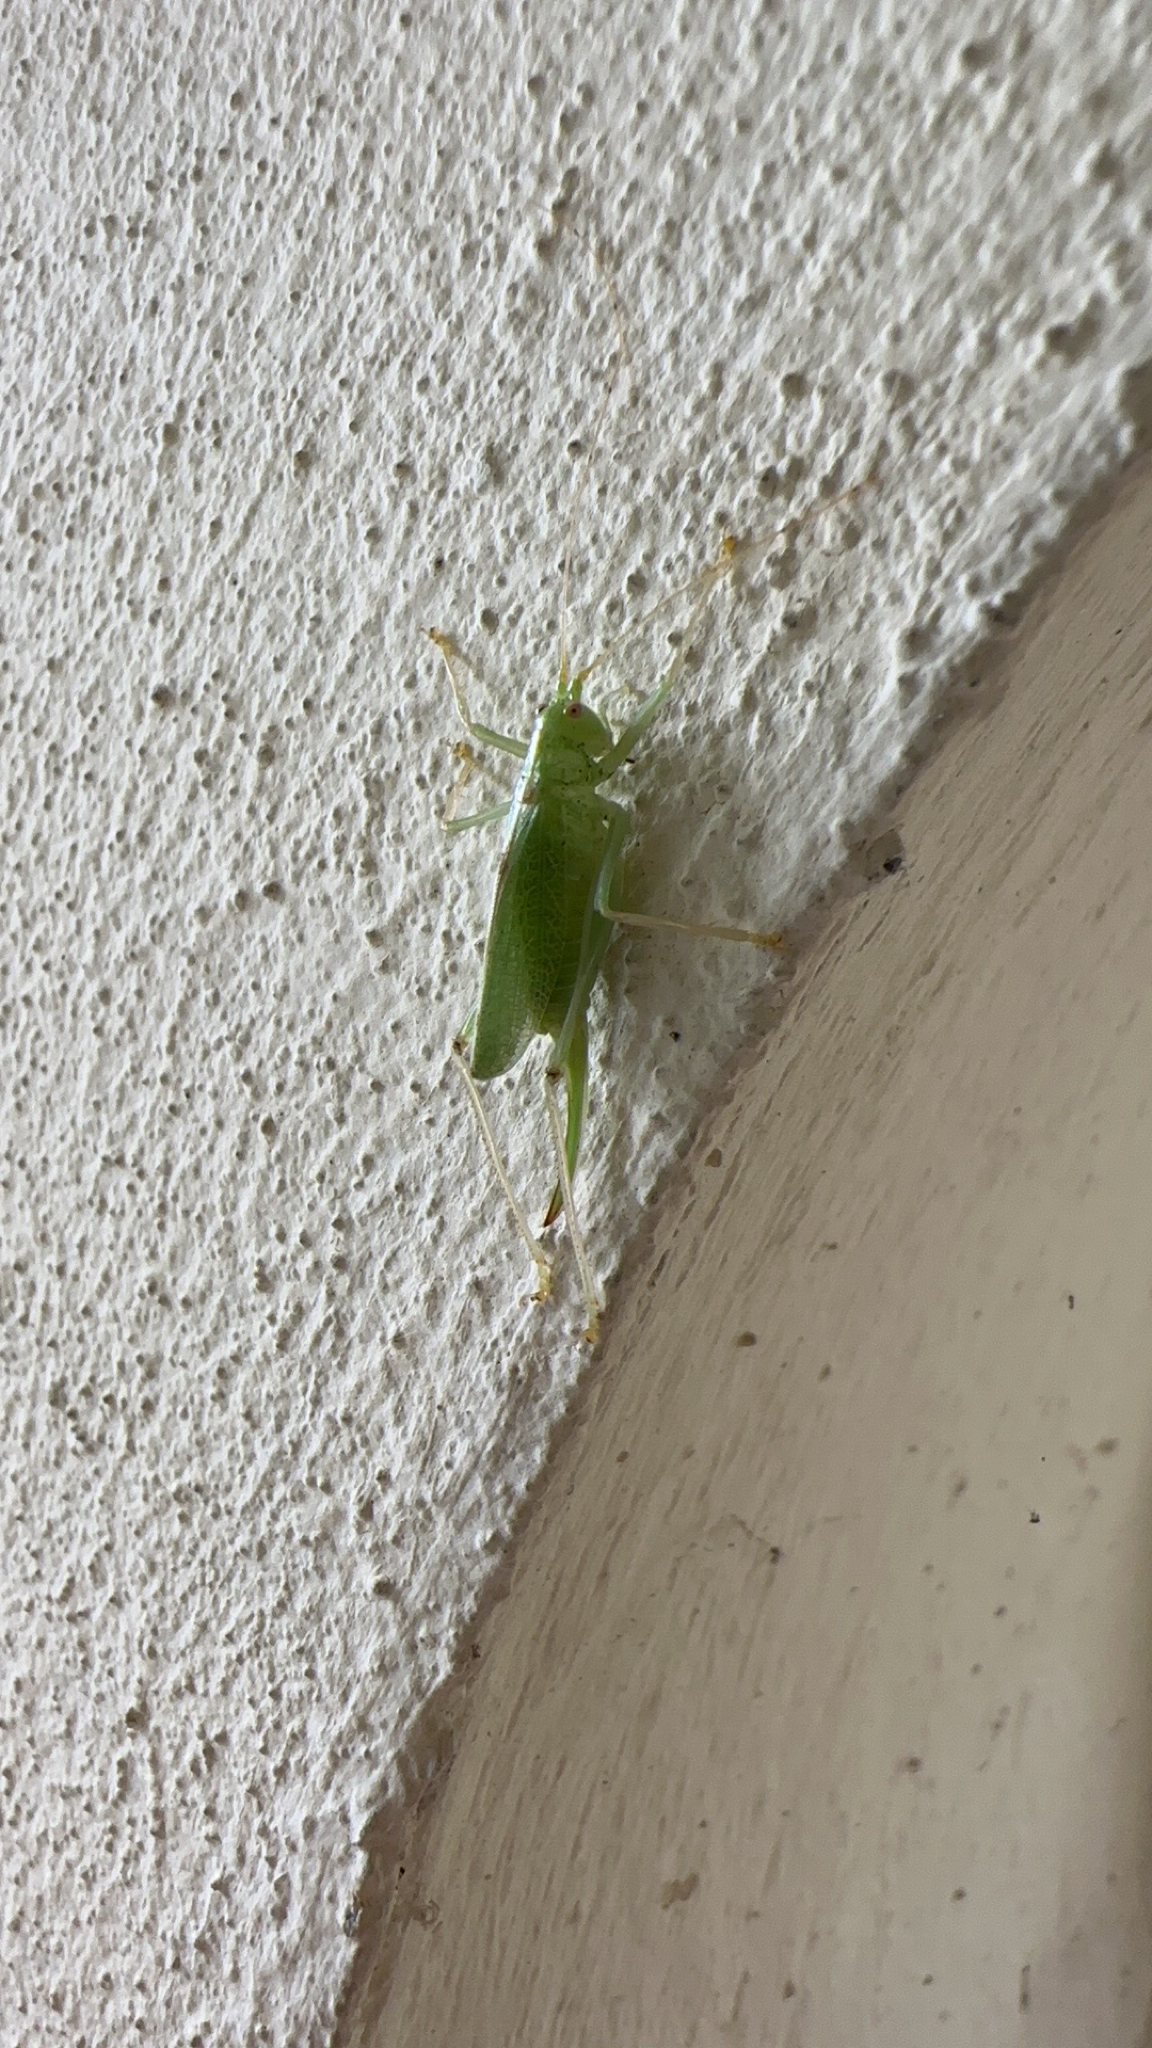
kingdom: Animalia
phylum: Arthropoda
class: Insecta
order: Orthoptera
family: Tettigoniidae
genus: Meconema
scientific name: Meconema thalassinum
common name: Oak bush-cricket
